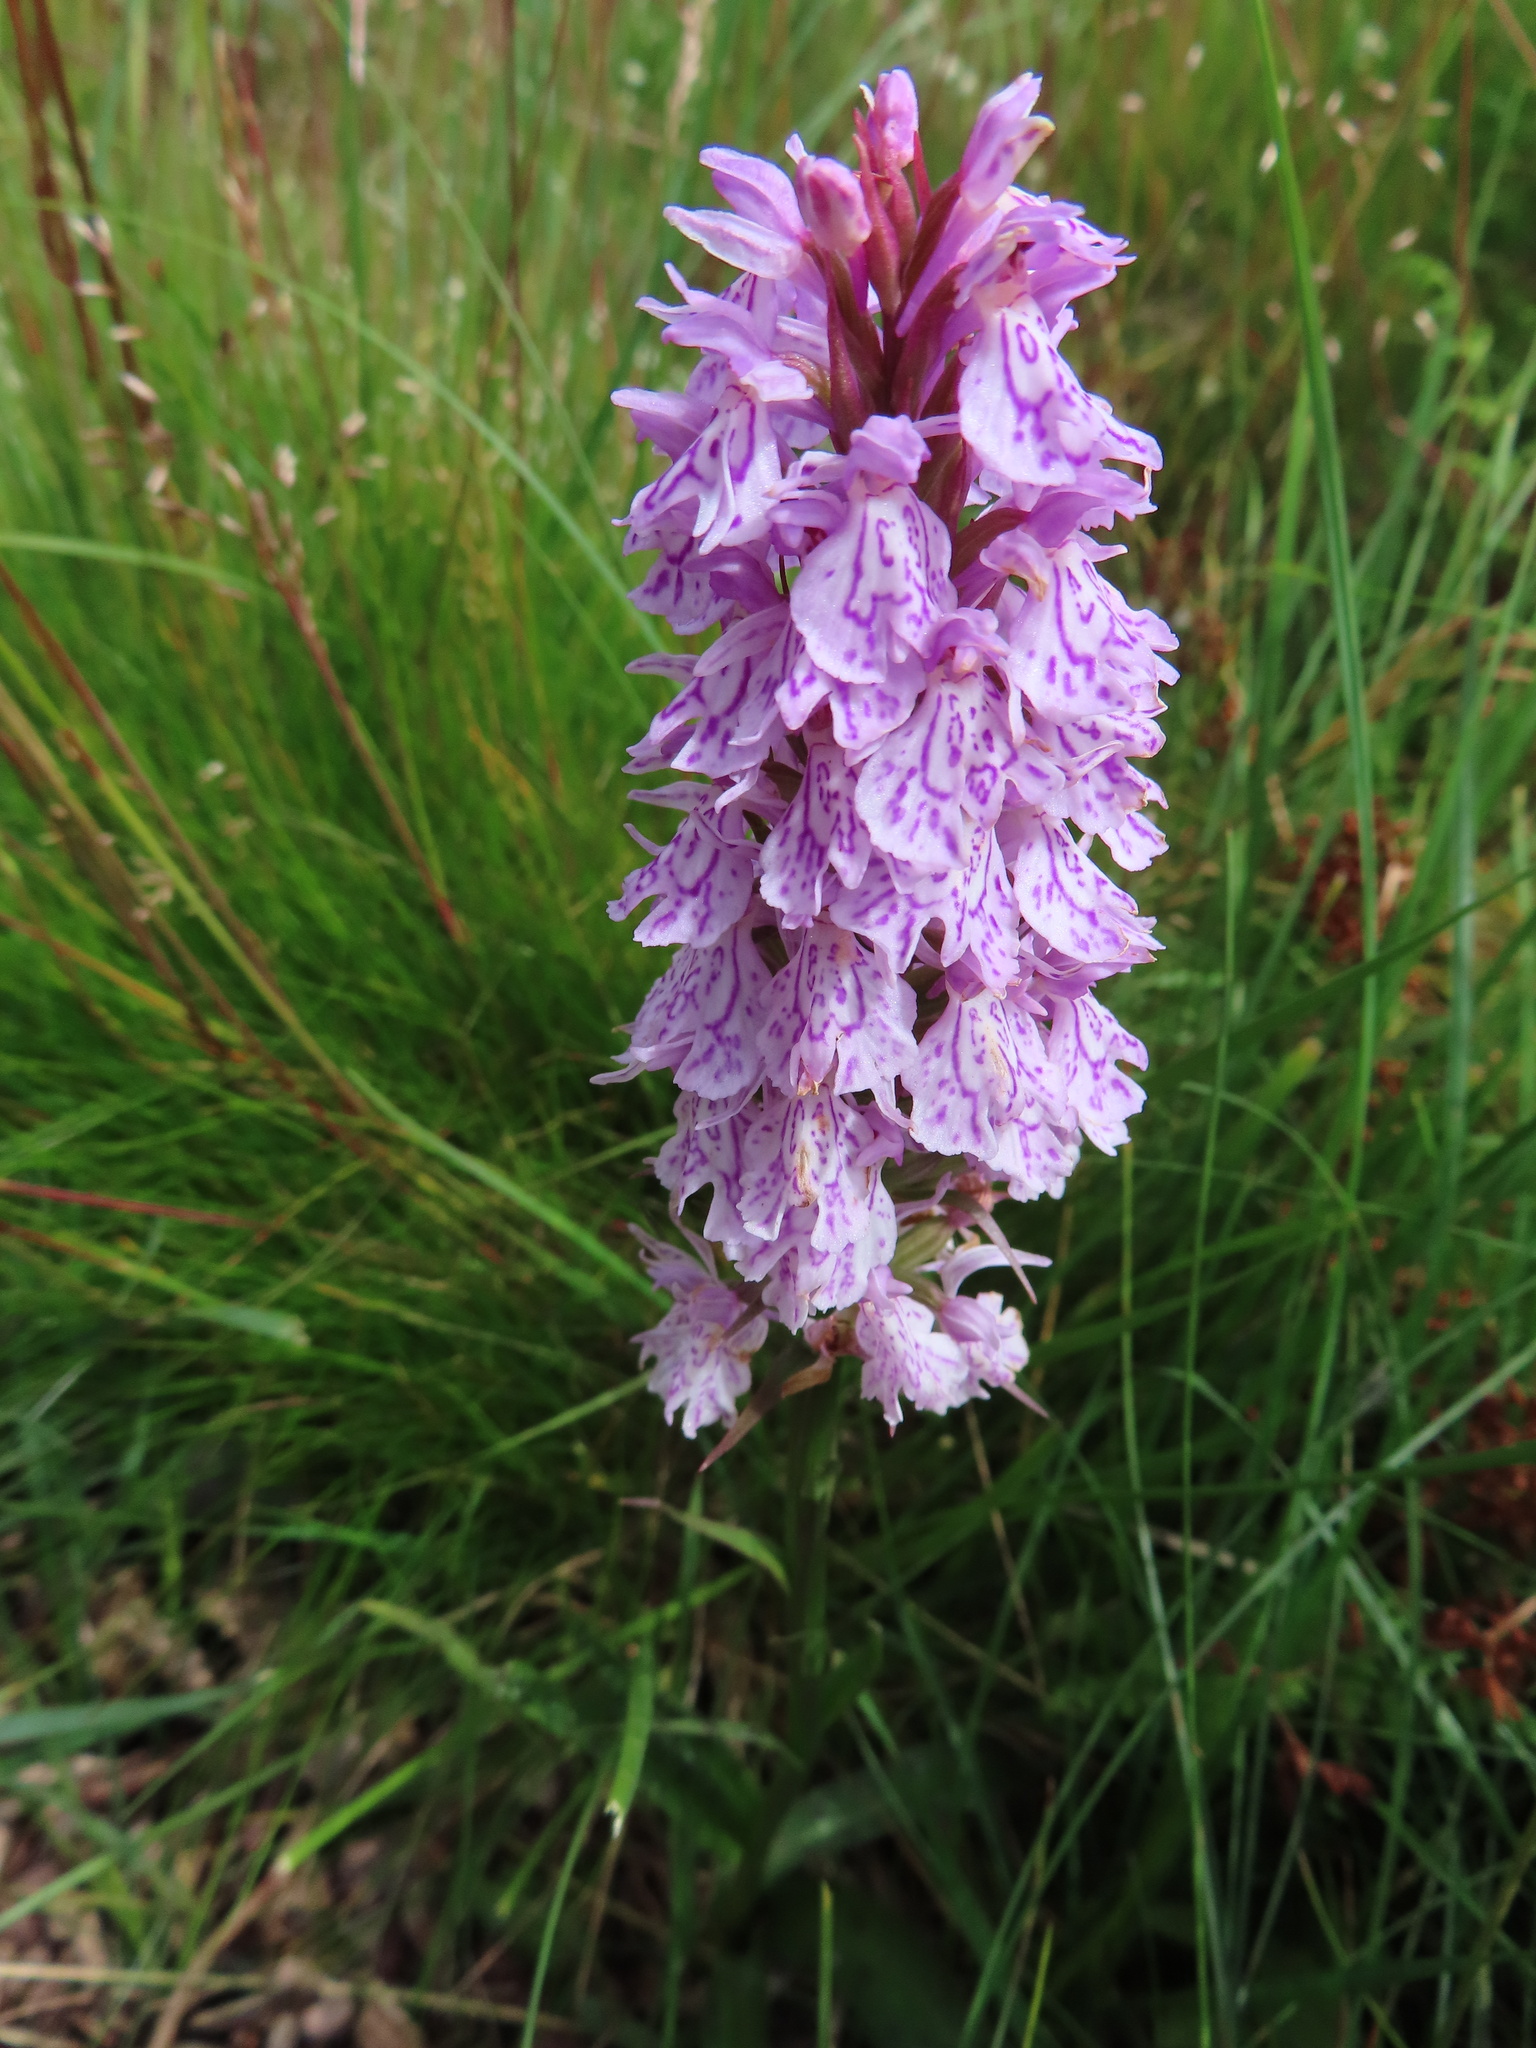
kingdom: Plantae
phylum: Tracheophyta
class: Liliopsida
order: Asparagales
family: Orchidaceae
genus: Dactylorhiza
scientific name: Dactylorhiza maculata
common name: Heath spotted-orchid
